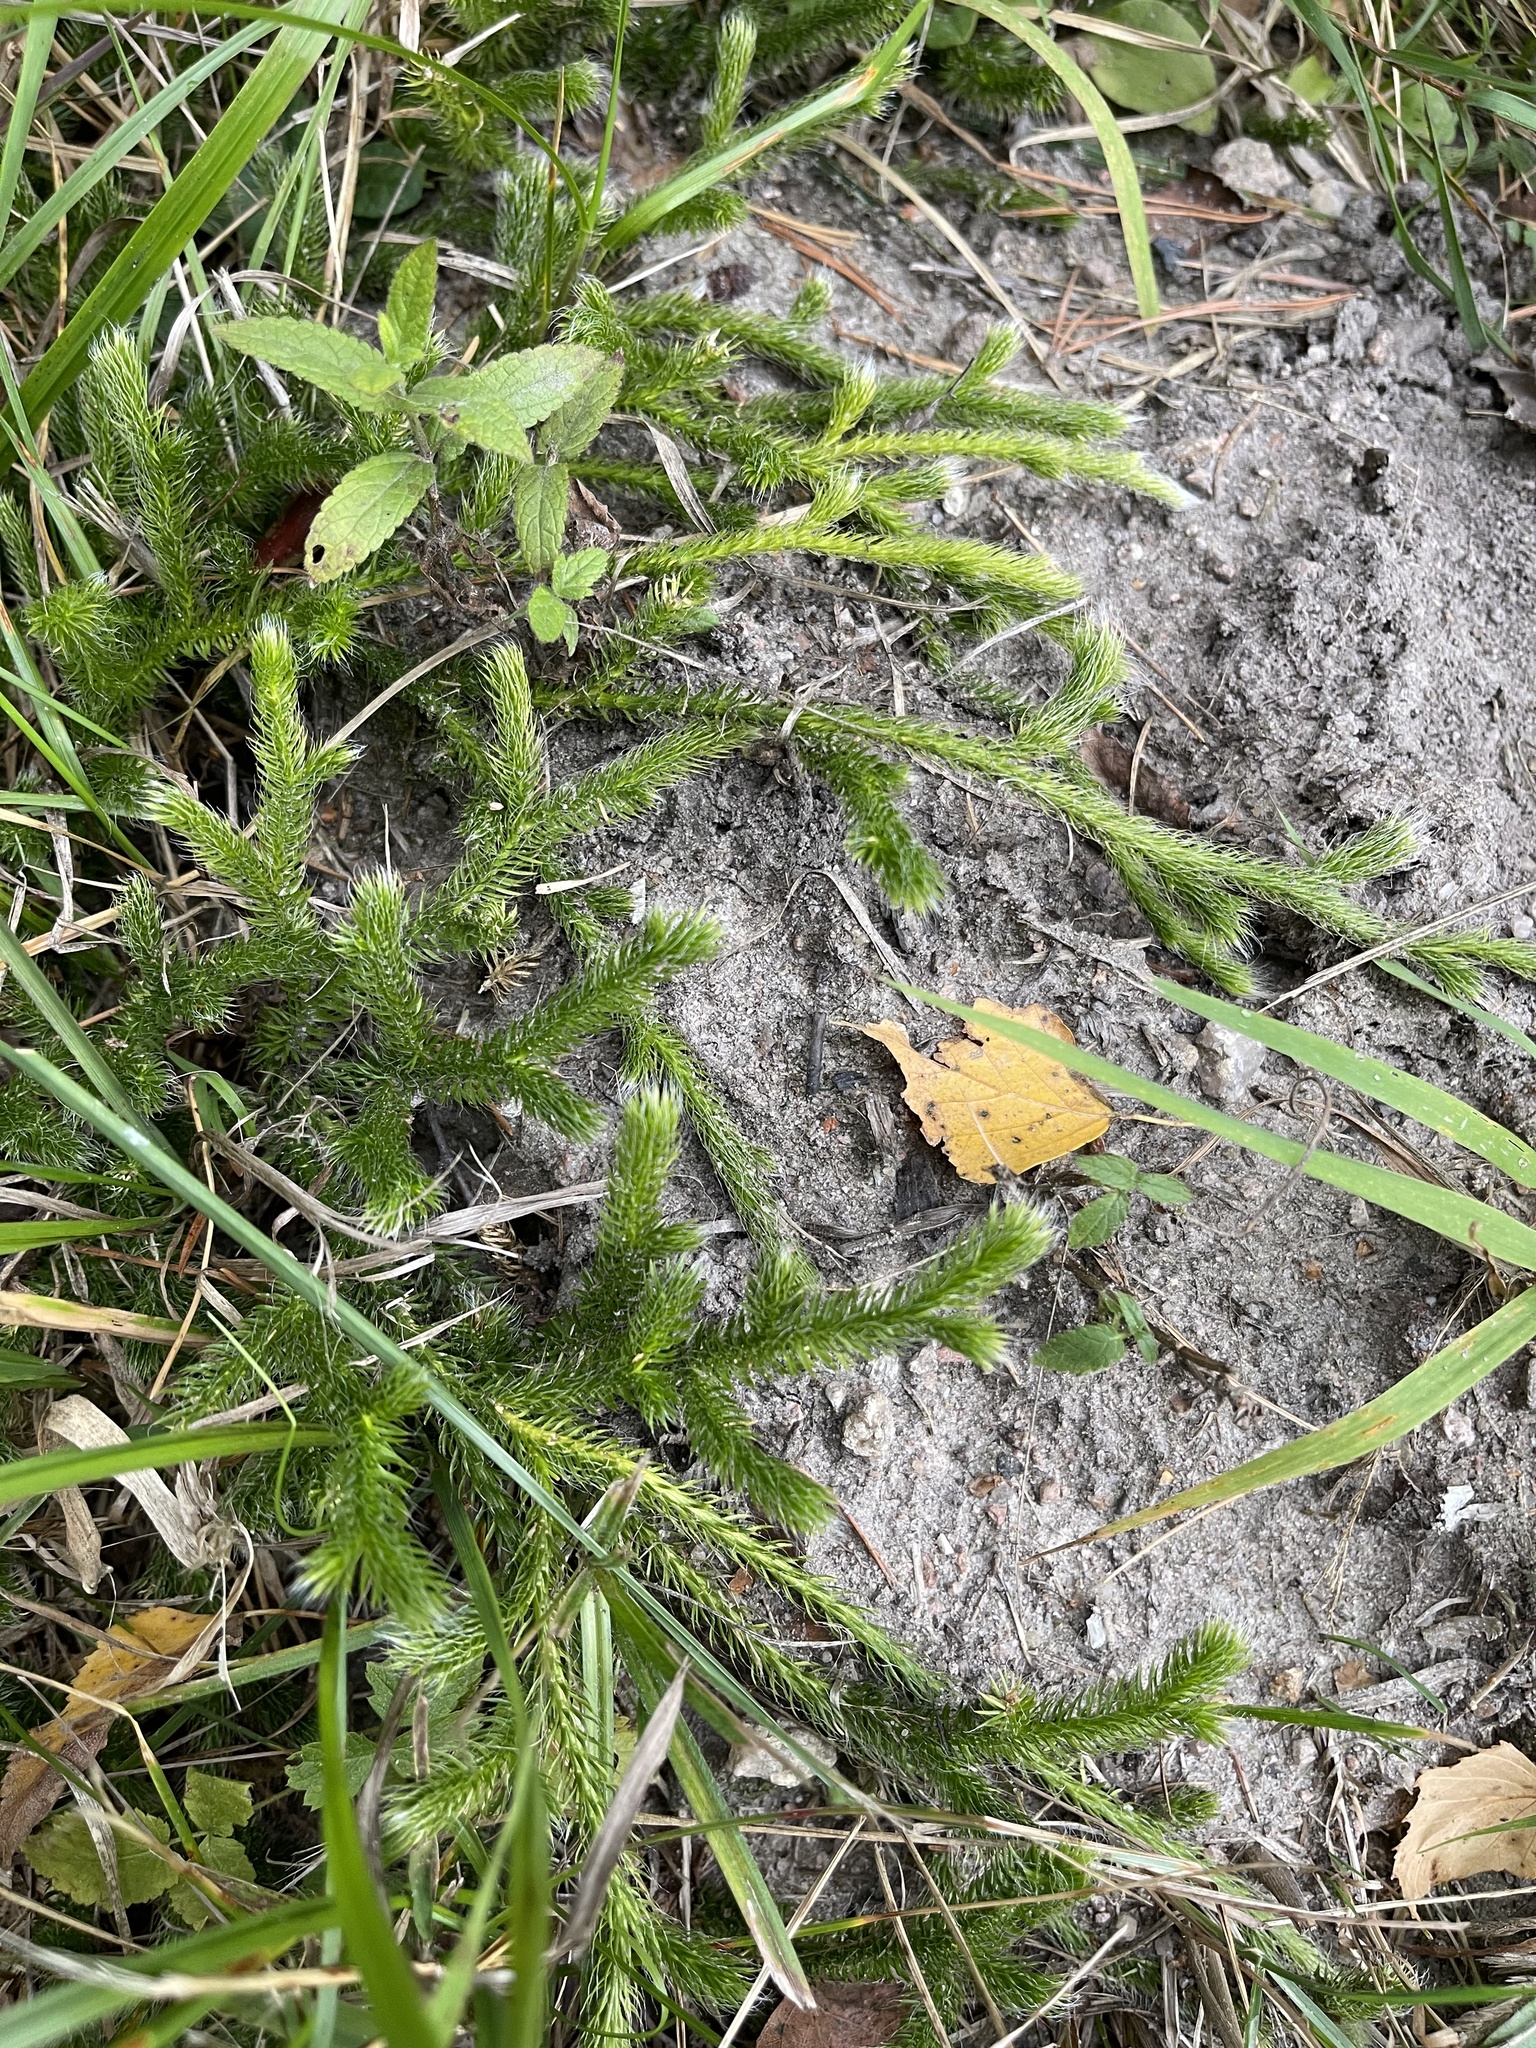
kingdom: Plantae
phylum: Tracheophyta
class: Lycopodiopsida
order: Lycopodiales
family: Lycopodiaceae
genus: Lycopodium
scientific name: Lycopodium clavatum
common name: Stag's-horn clubmoss
